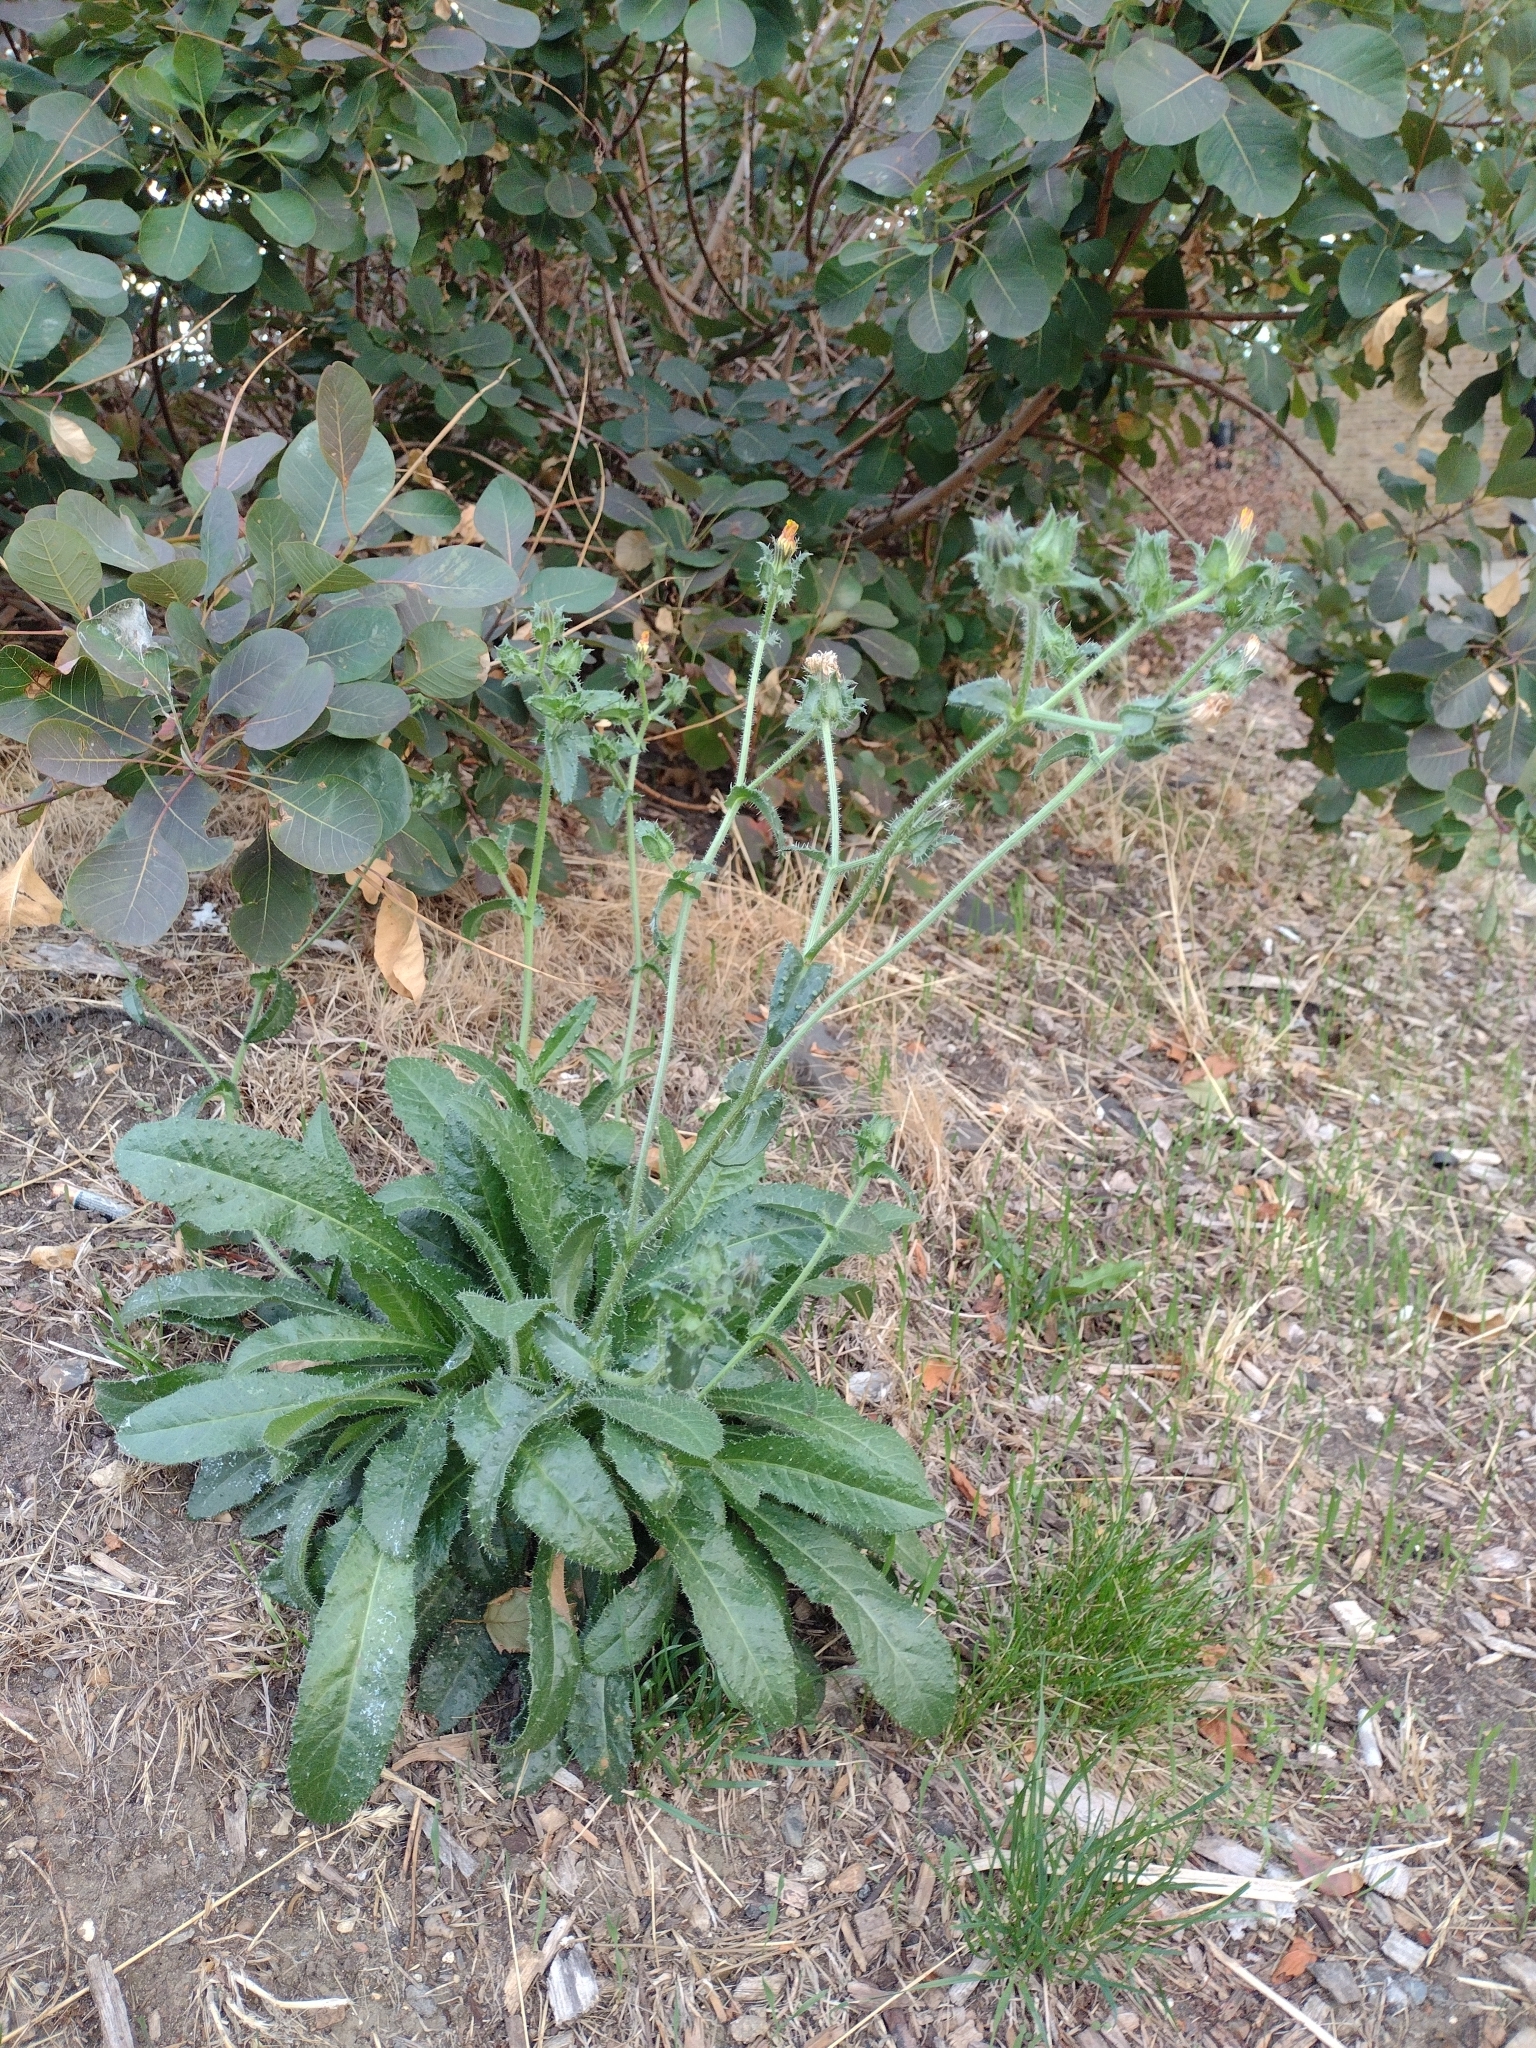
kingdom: Plantae
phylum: Tracheophyta
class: Magnoliopsida
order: Asterales
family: Asteraceae
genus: Helminthotheca
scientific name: Helminthotheca echioides
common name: Ox-tongue
